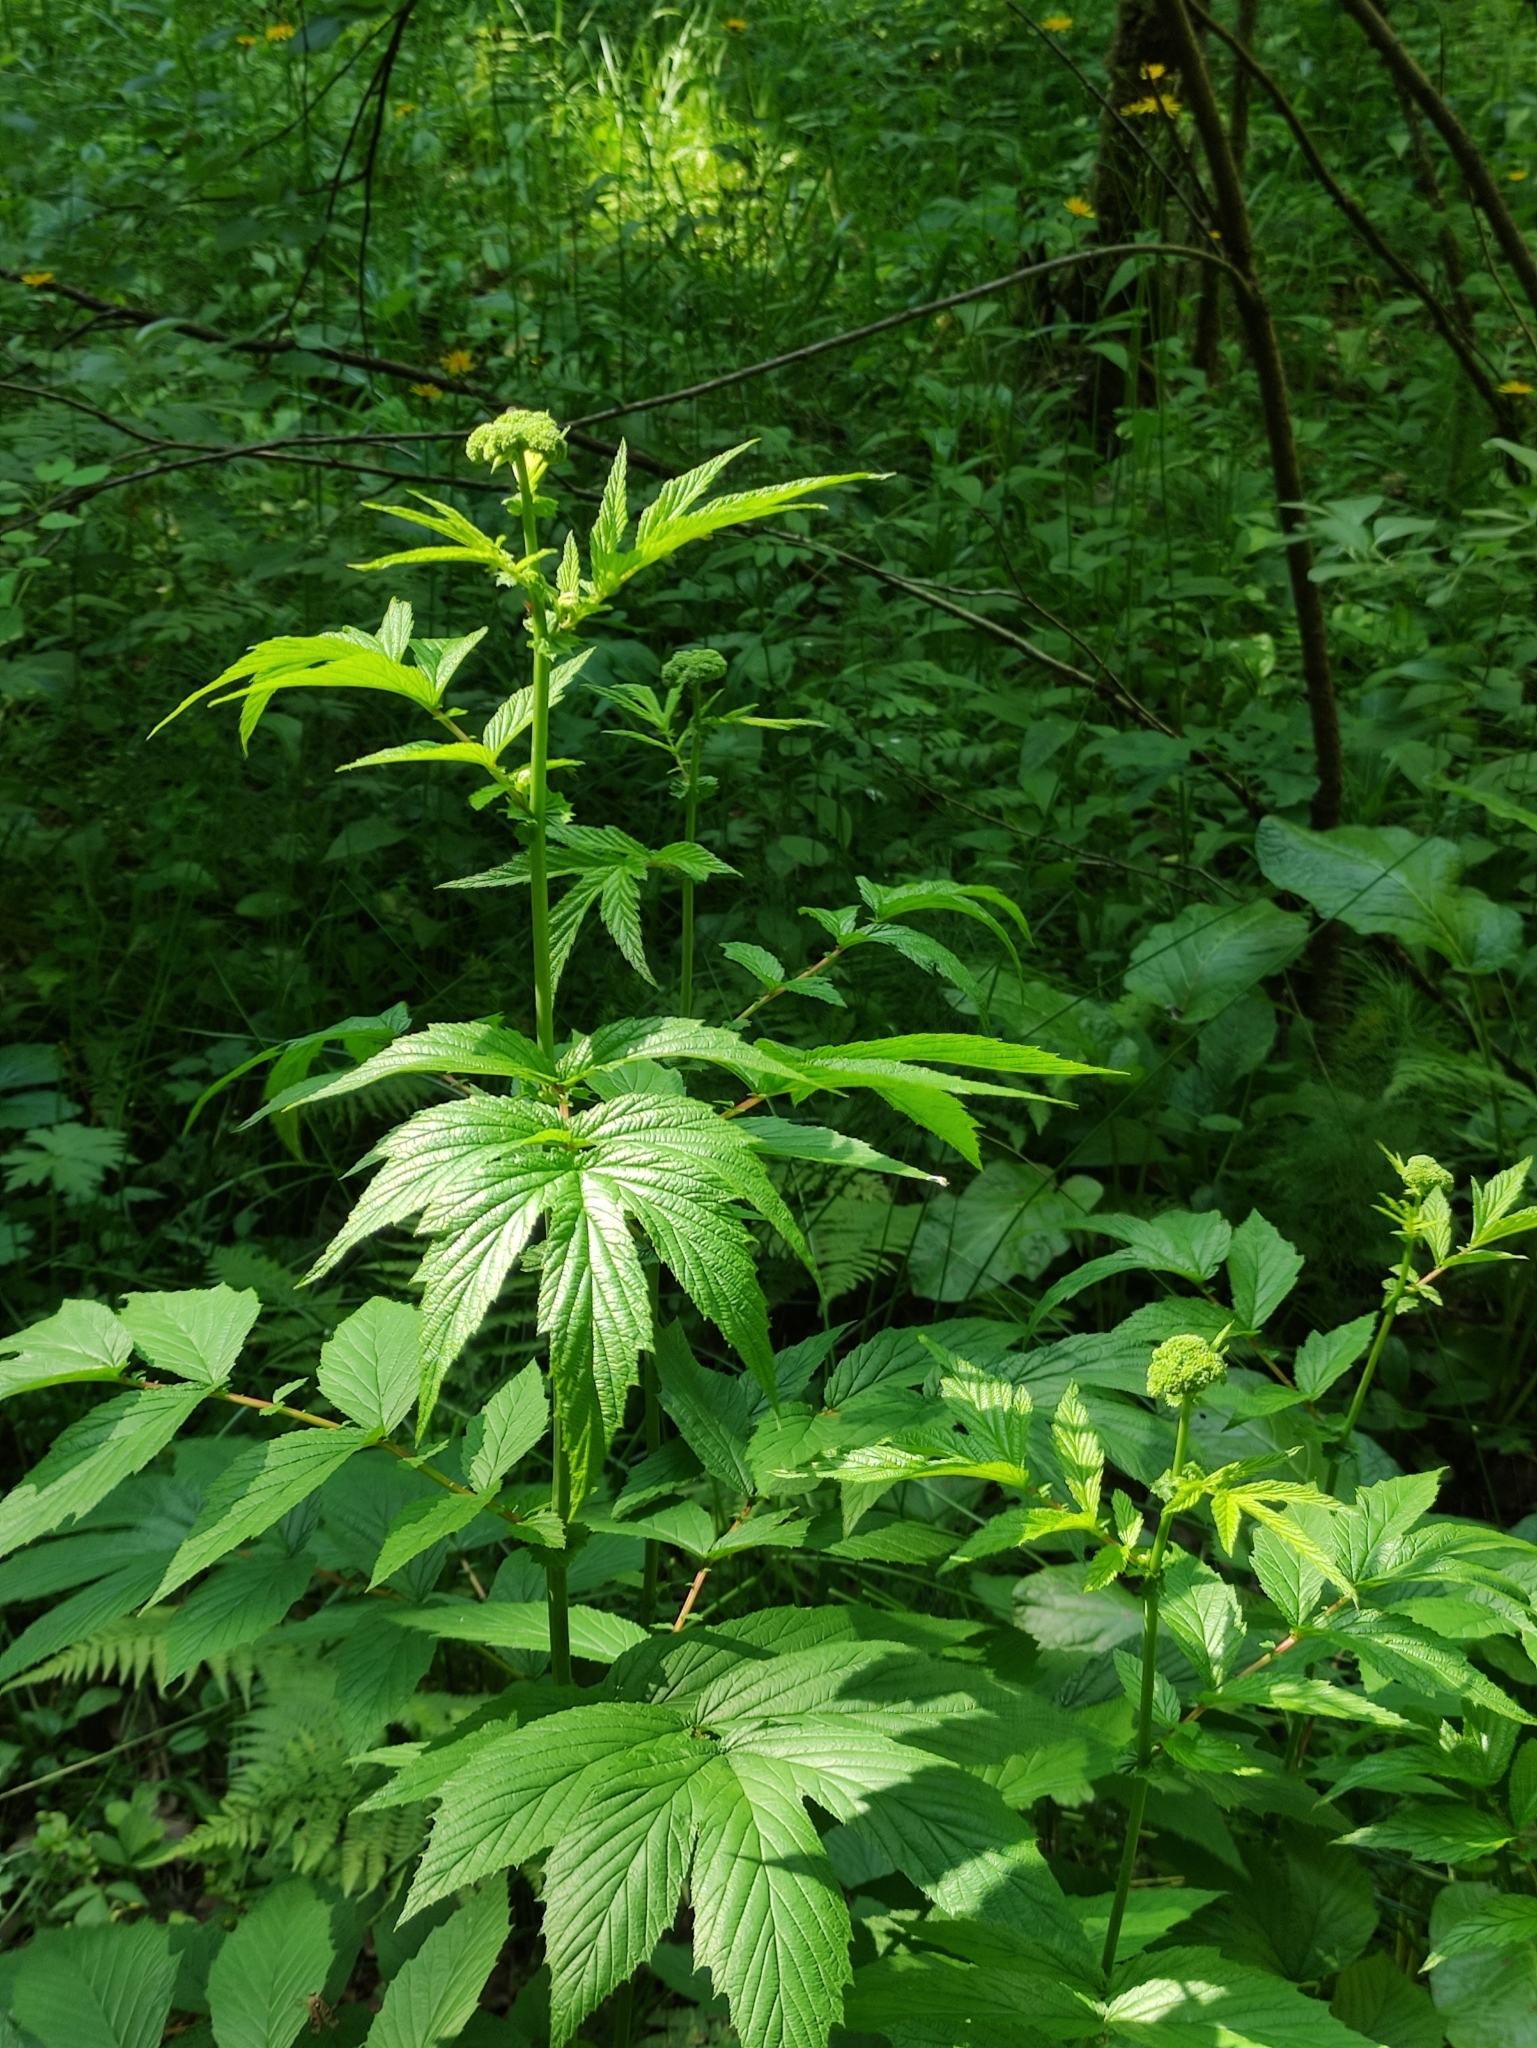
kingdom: Plantae
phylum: Tracheophyta
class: Magnoliopsida
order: Rosales
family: Rosaceae
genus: Filipendula
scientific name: Filipendula ulmaria
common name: Meadowsweet
